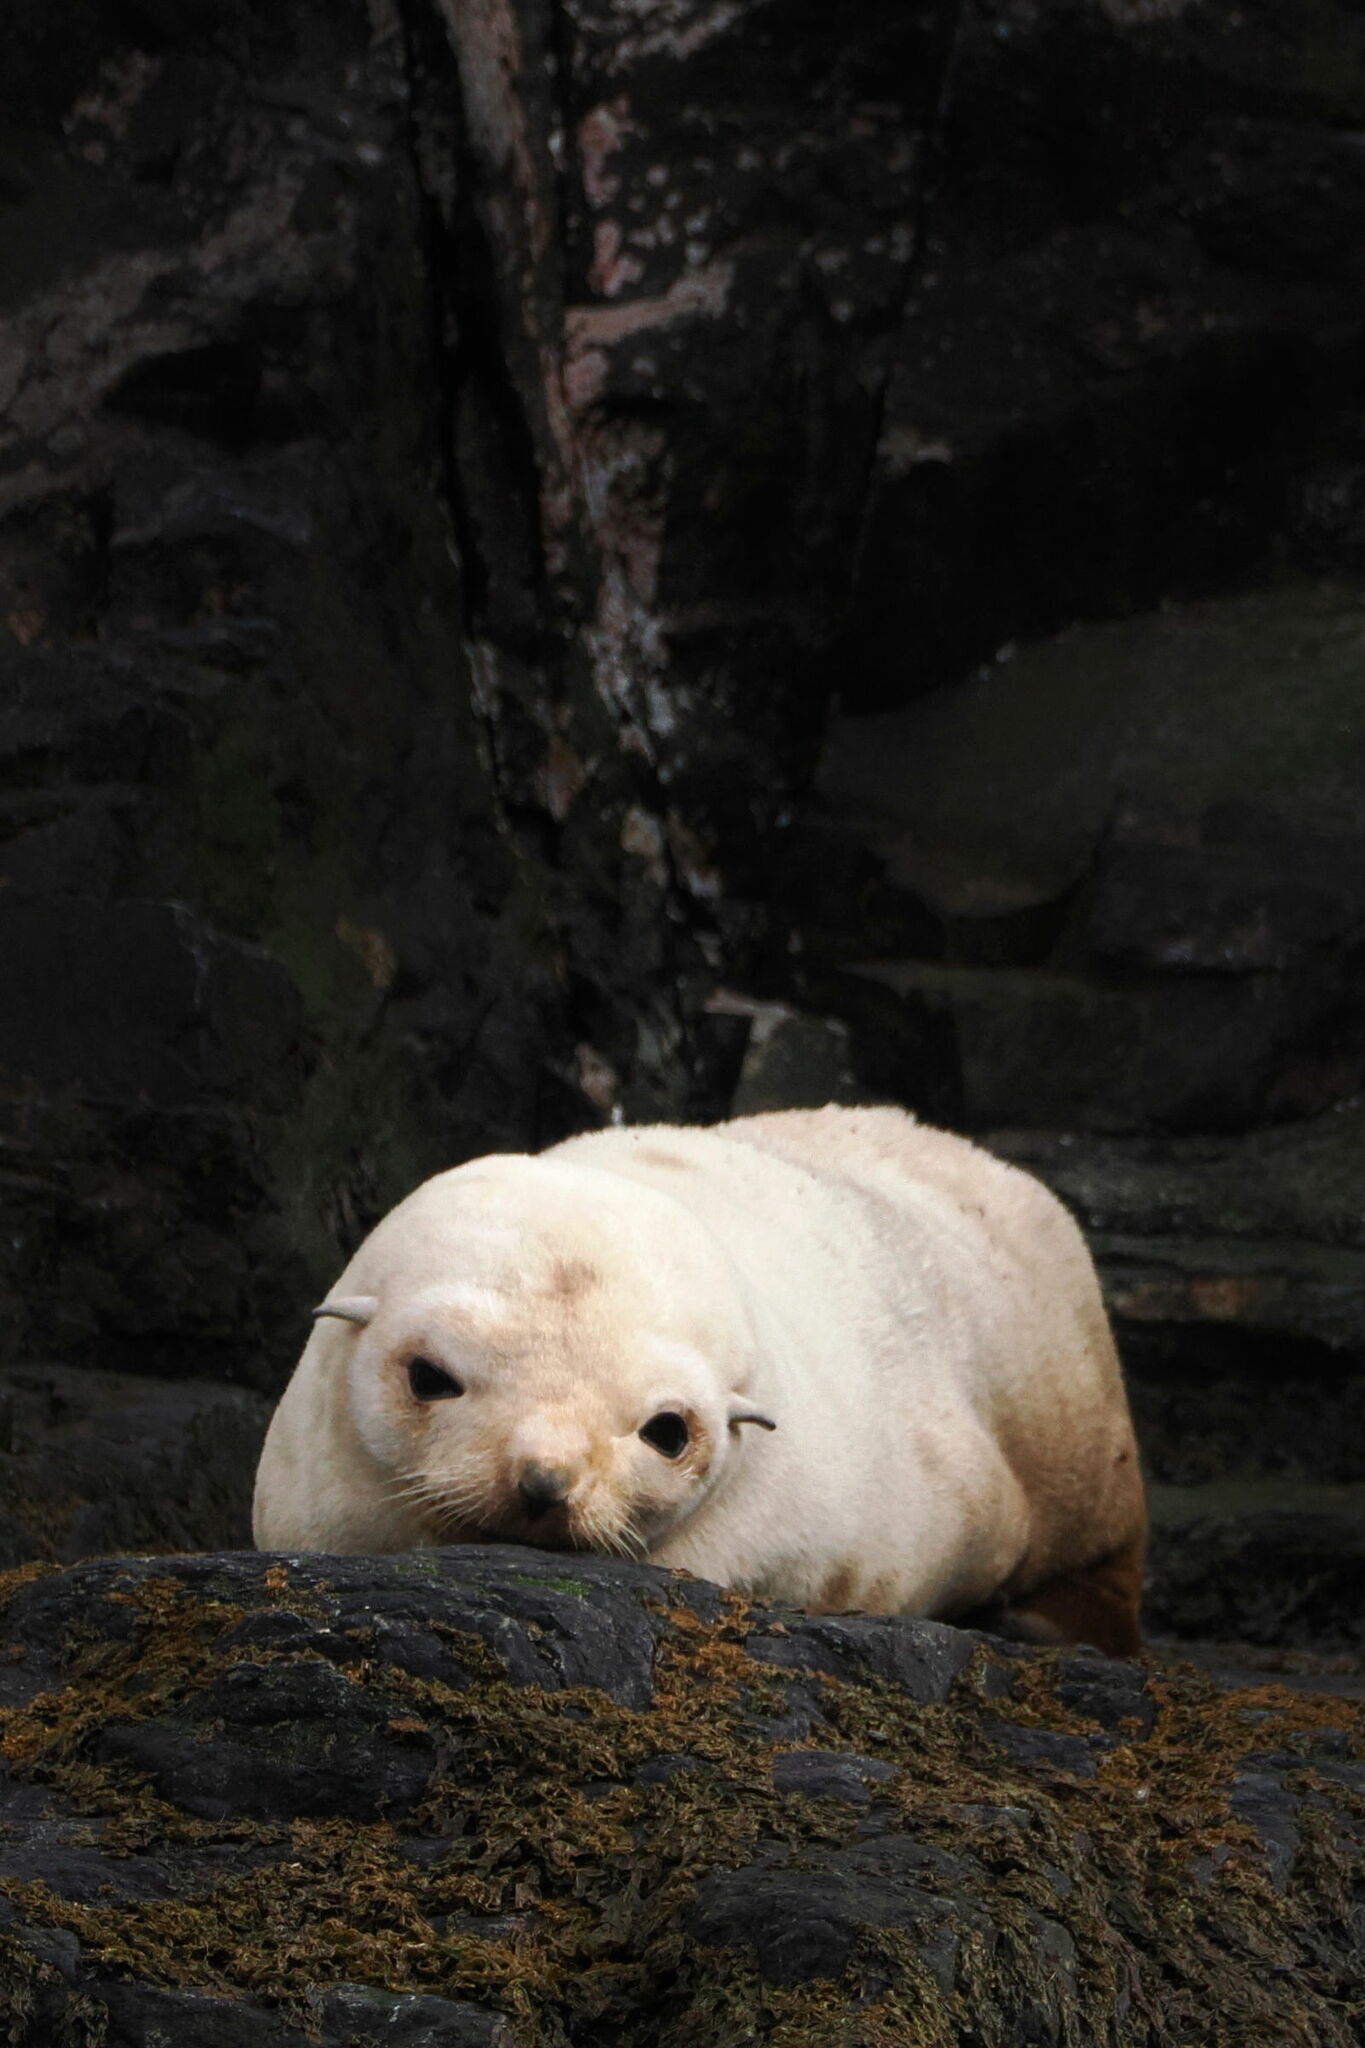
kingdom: Animalia
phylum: Chordata
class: Mammalia
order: Carnivora
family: Otariidae
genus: Arctocephalus
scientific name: Arctocephalus gazella
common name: Antarctic fur seal
